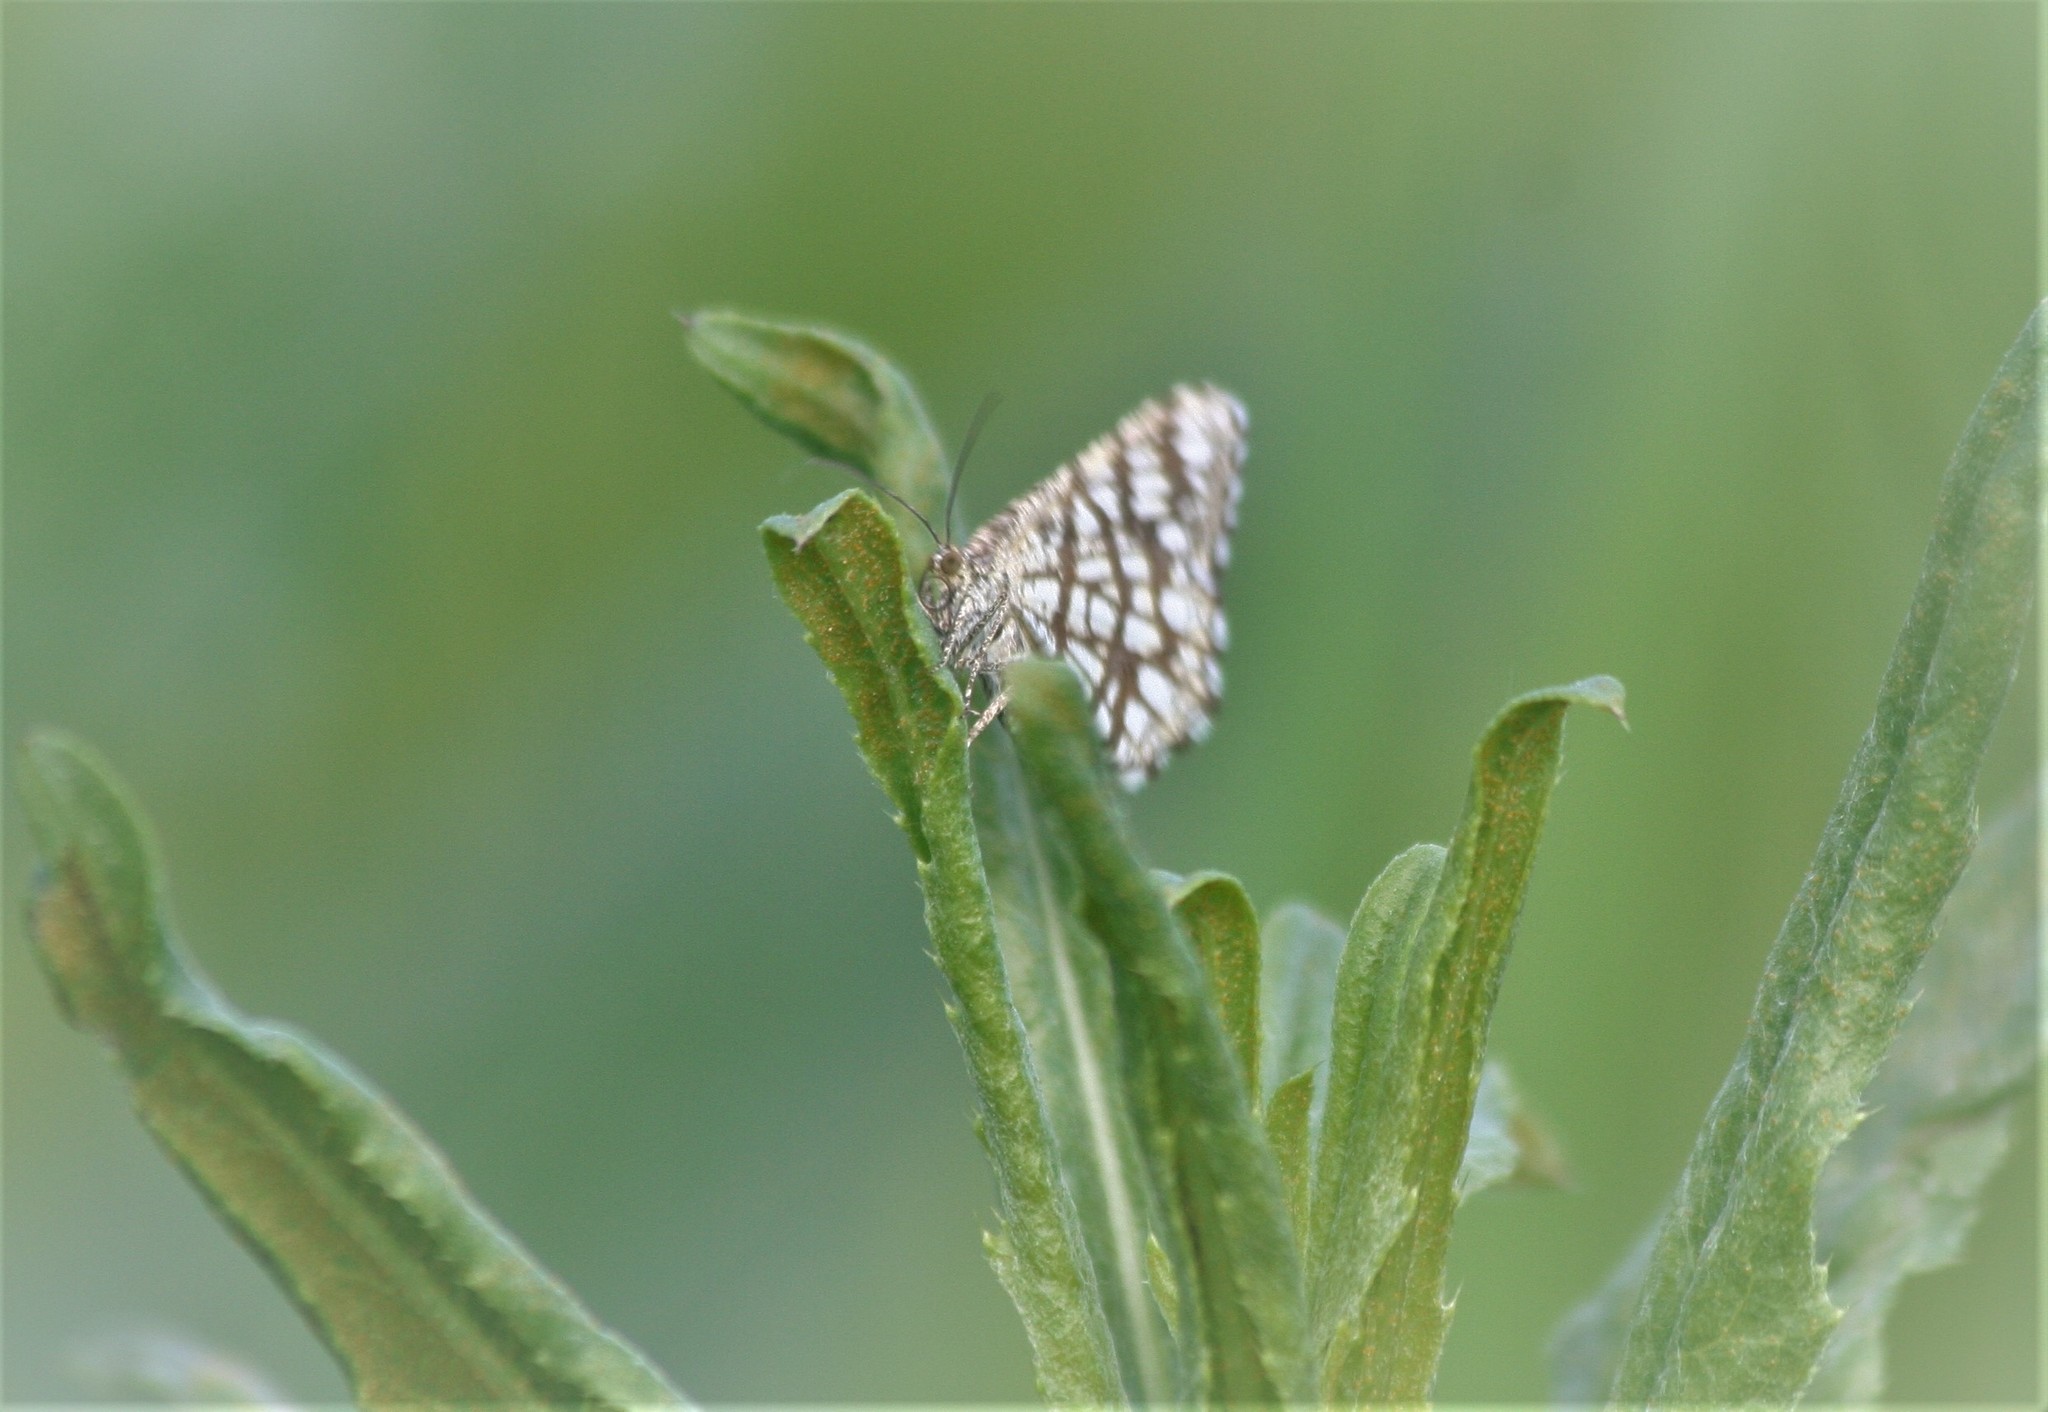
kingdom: Animalia
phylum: Arthropoda
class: Insecta
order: Lepidoptera
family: Geometridae
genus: Chiasmia
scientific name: Chiasmia clathrata
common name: Latticed heath
